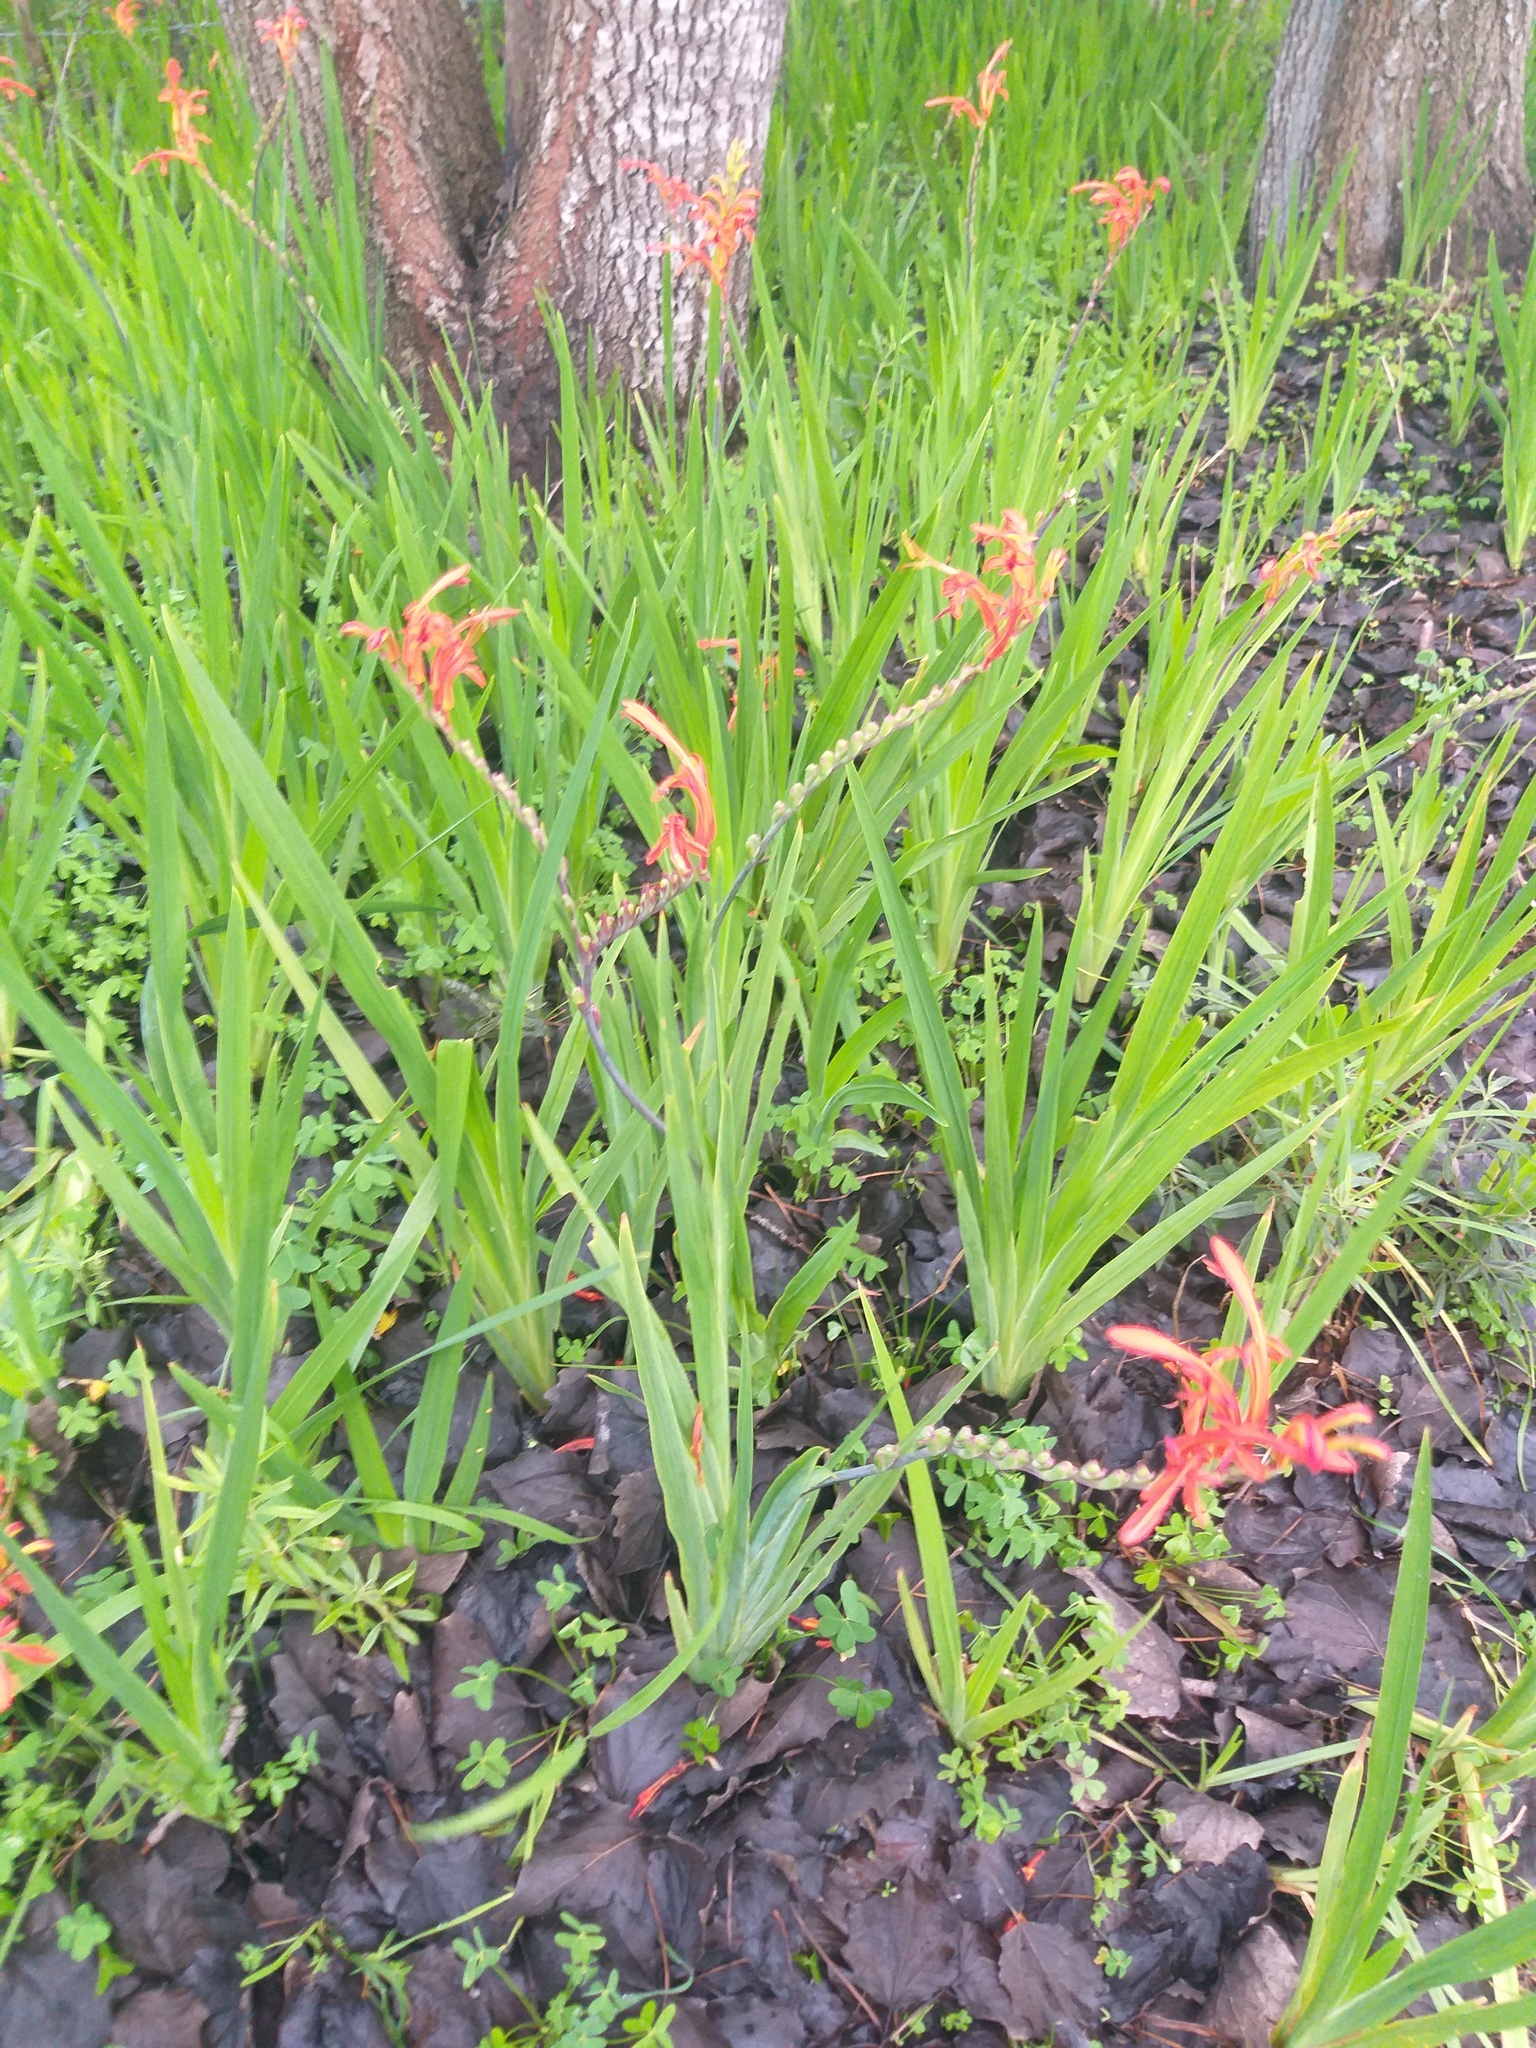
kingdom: Plantae
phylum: Tracheophyta
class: Liliopsida
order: Asparagales
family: Iridaceae
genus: Chasmanthe
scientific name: Chasmanthe aethiopica
